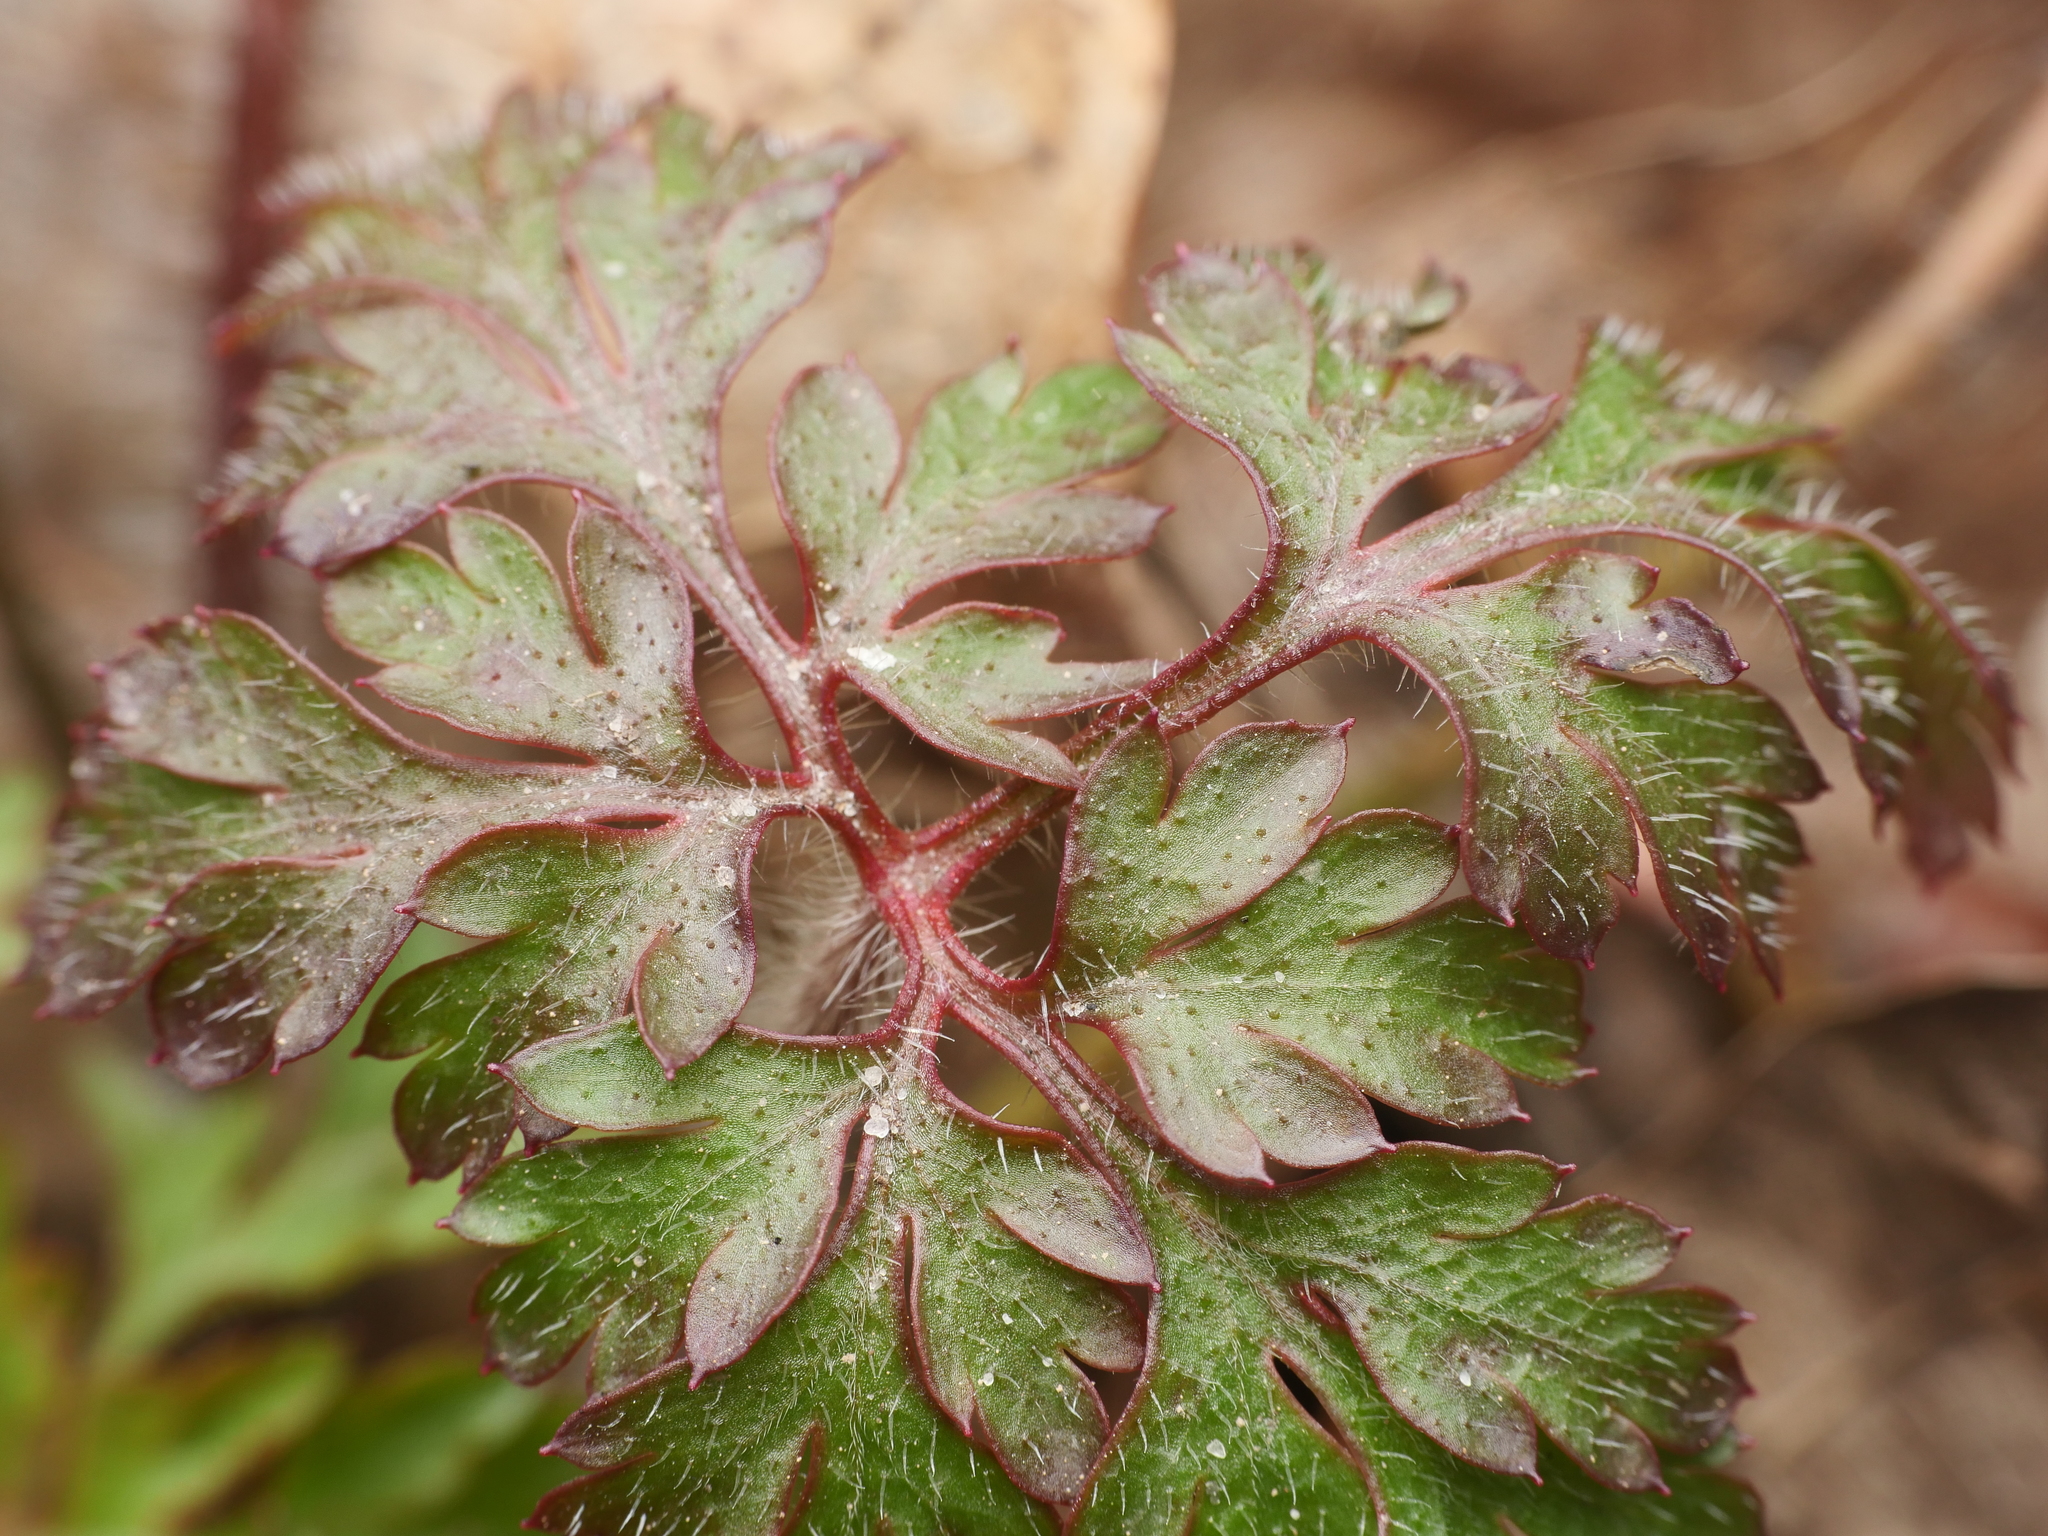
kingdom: Plantae
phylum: Tracheophyta
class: Magnoliopsida
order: Geraniales
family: Geraniaceae
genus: Geranium
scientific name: Geranium robertianum
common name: Herb-robert
